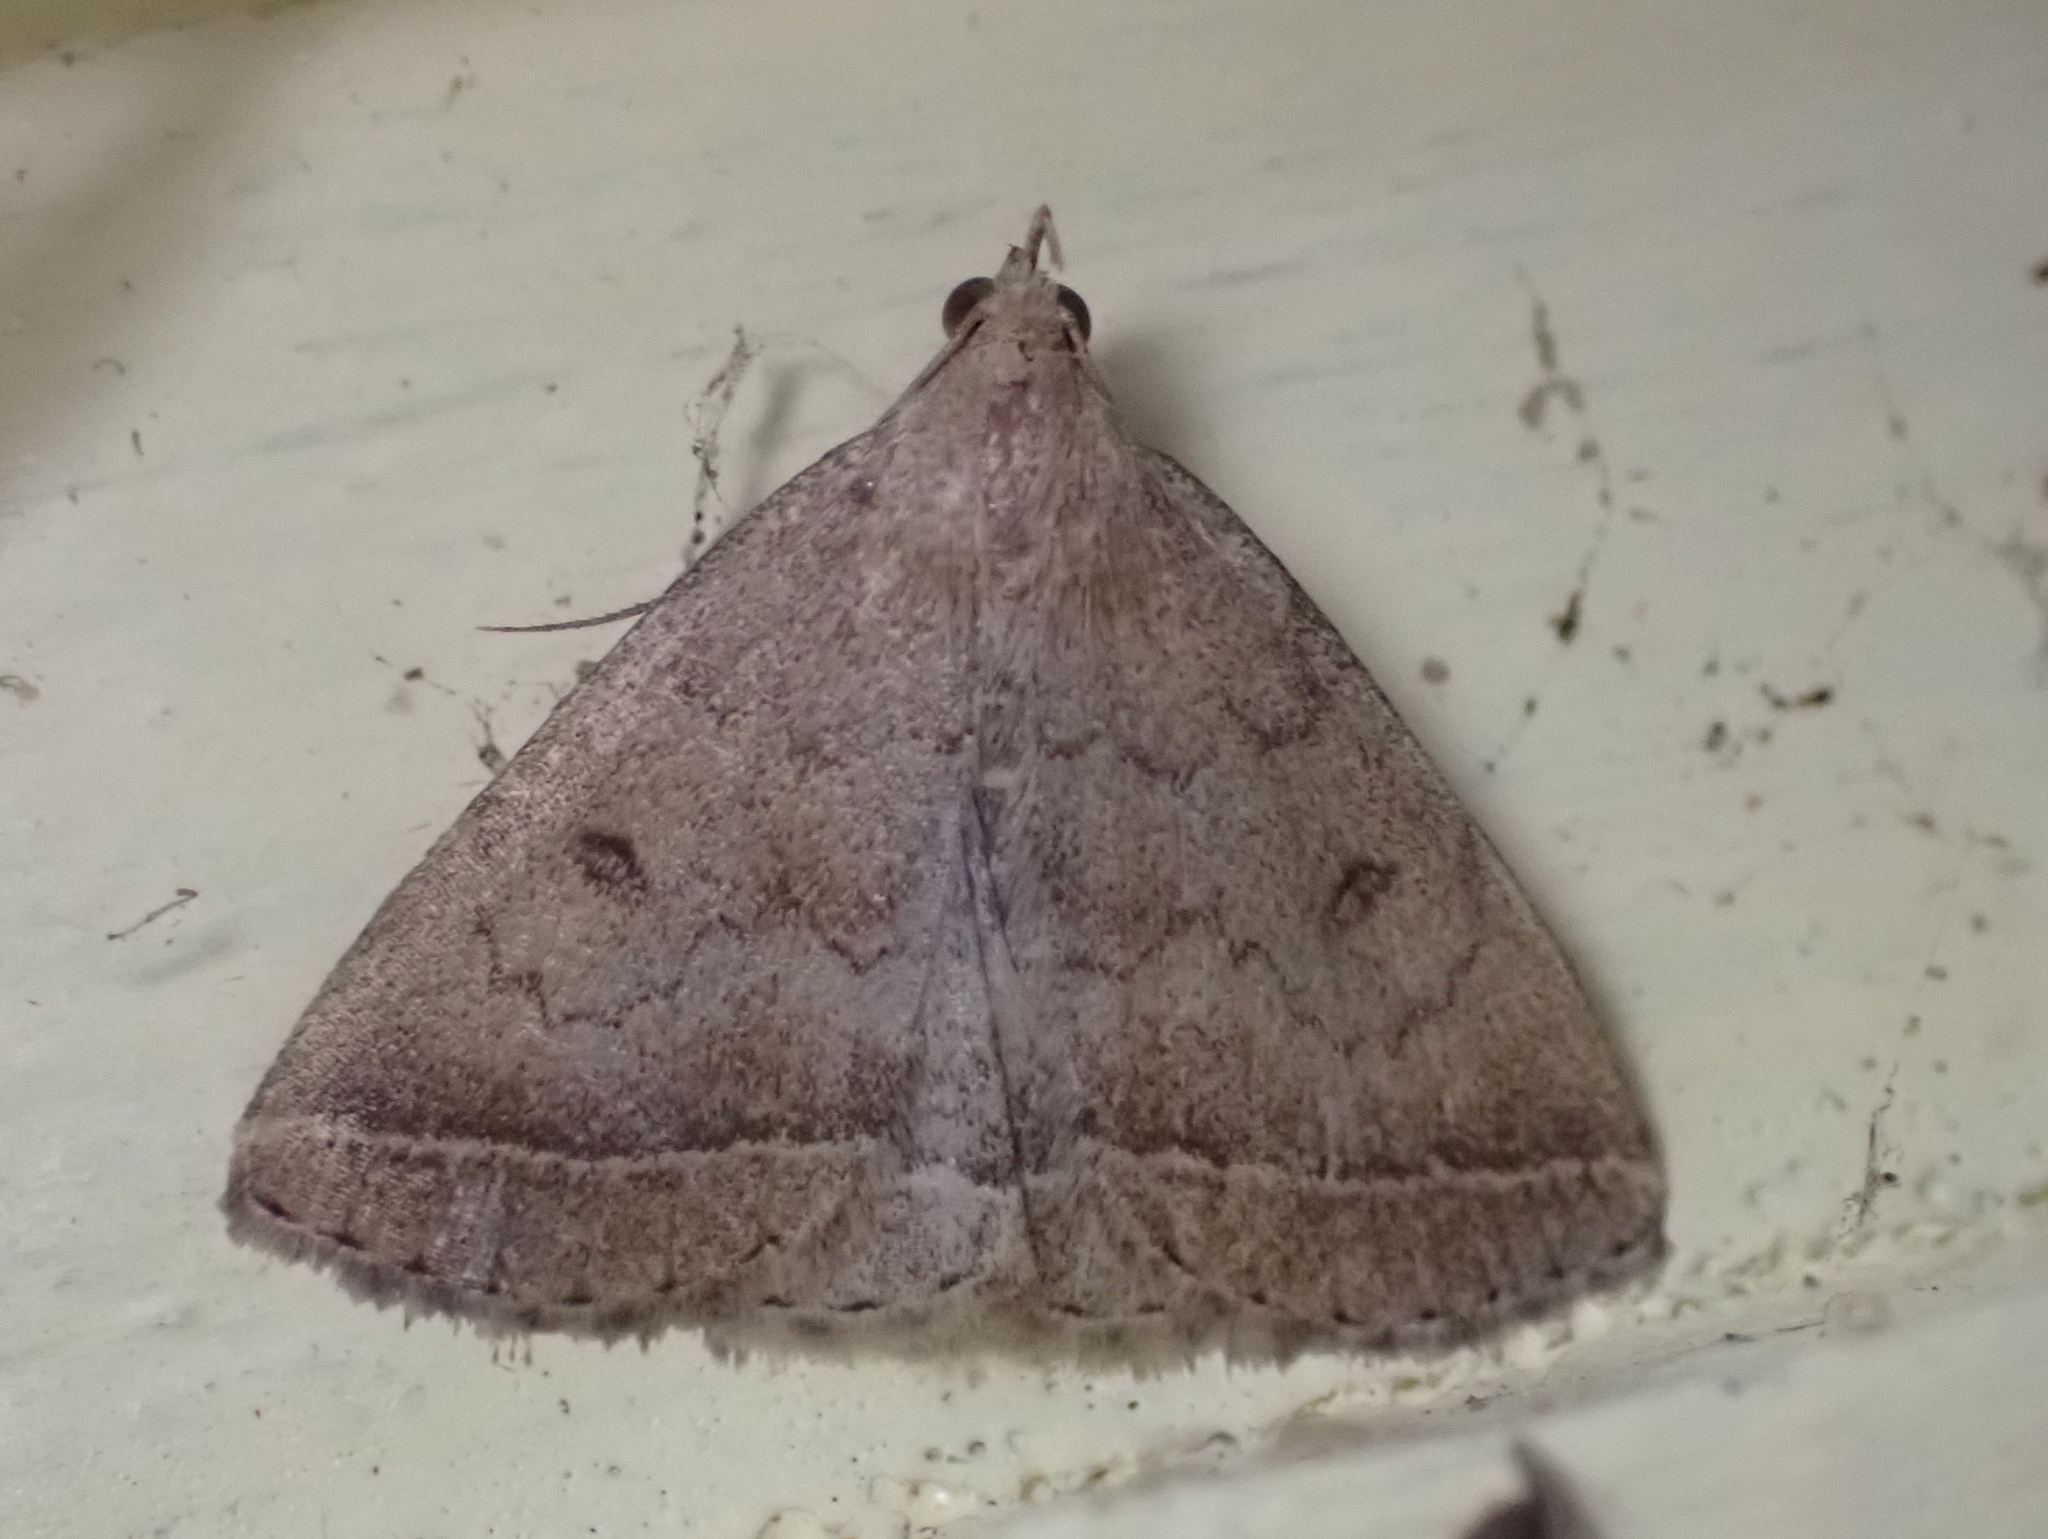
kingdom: Animalia
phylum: Arthropoda
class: Insecta
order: Lepidoptera
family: Erebidae
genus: Zanclognatha
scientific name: Zanclognatha jacchusalis
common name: Yellowish zanclognatha
